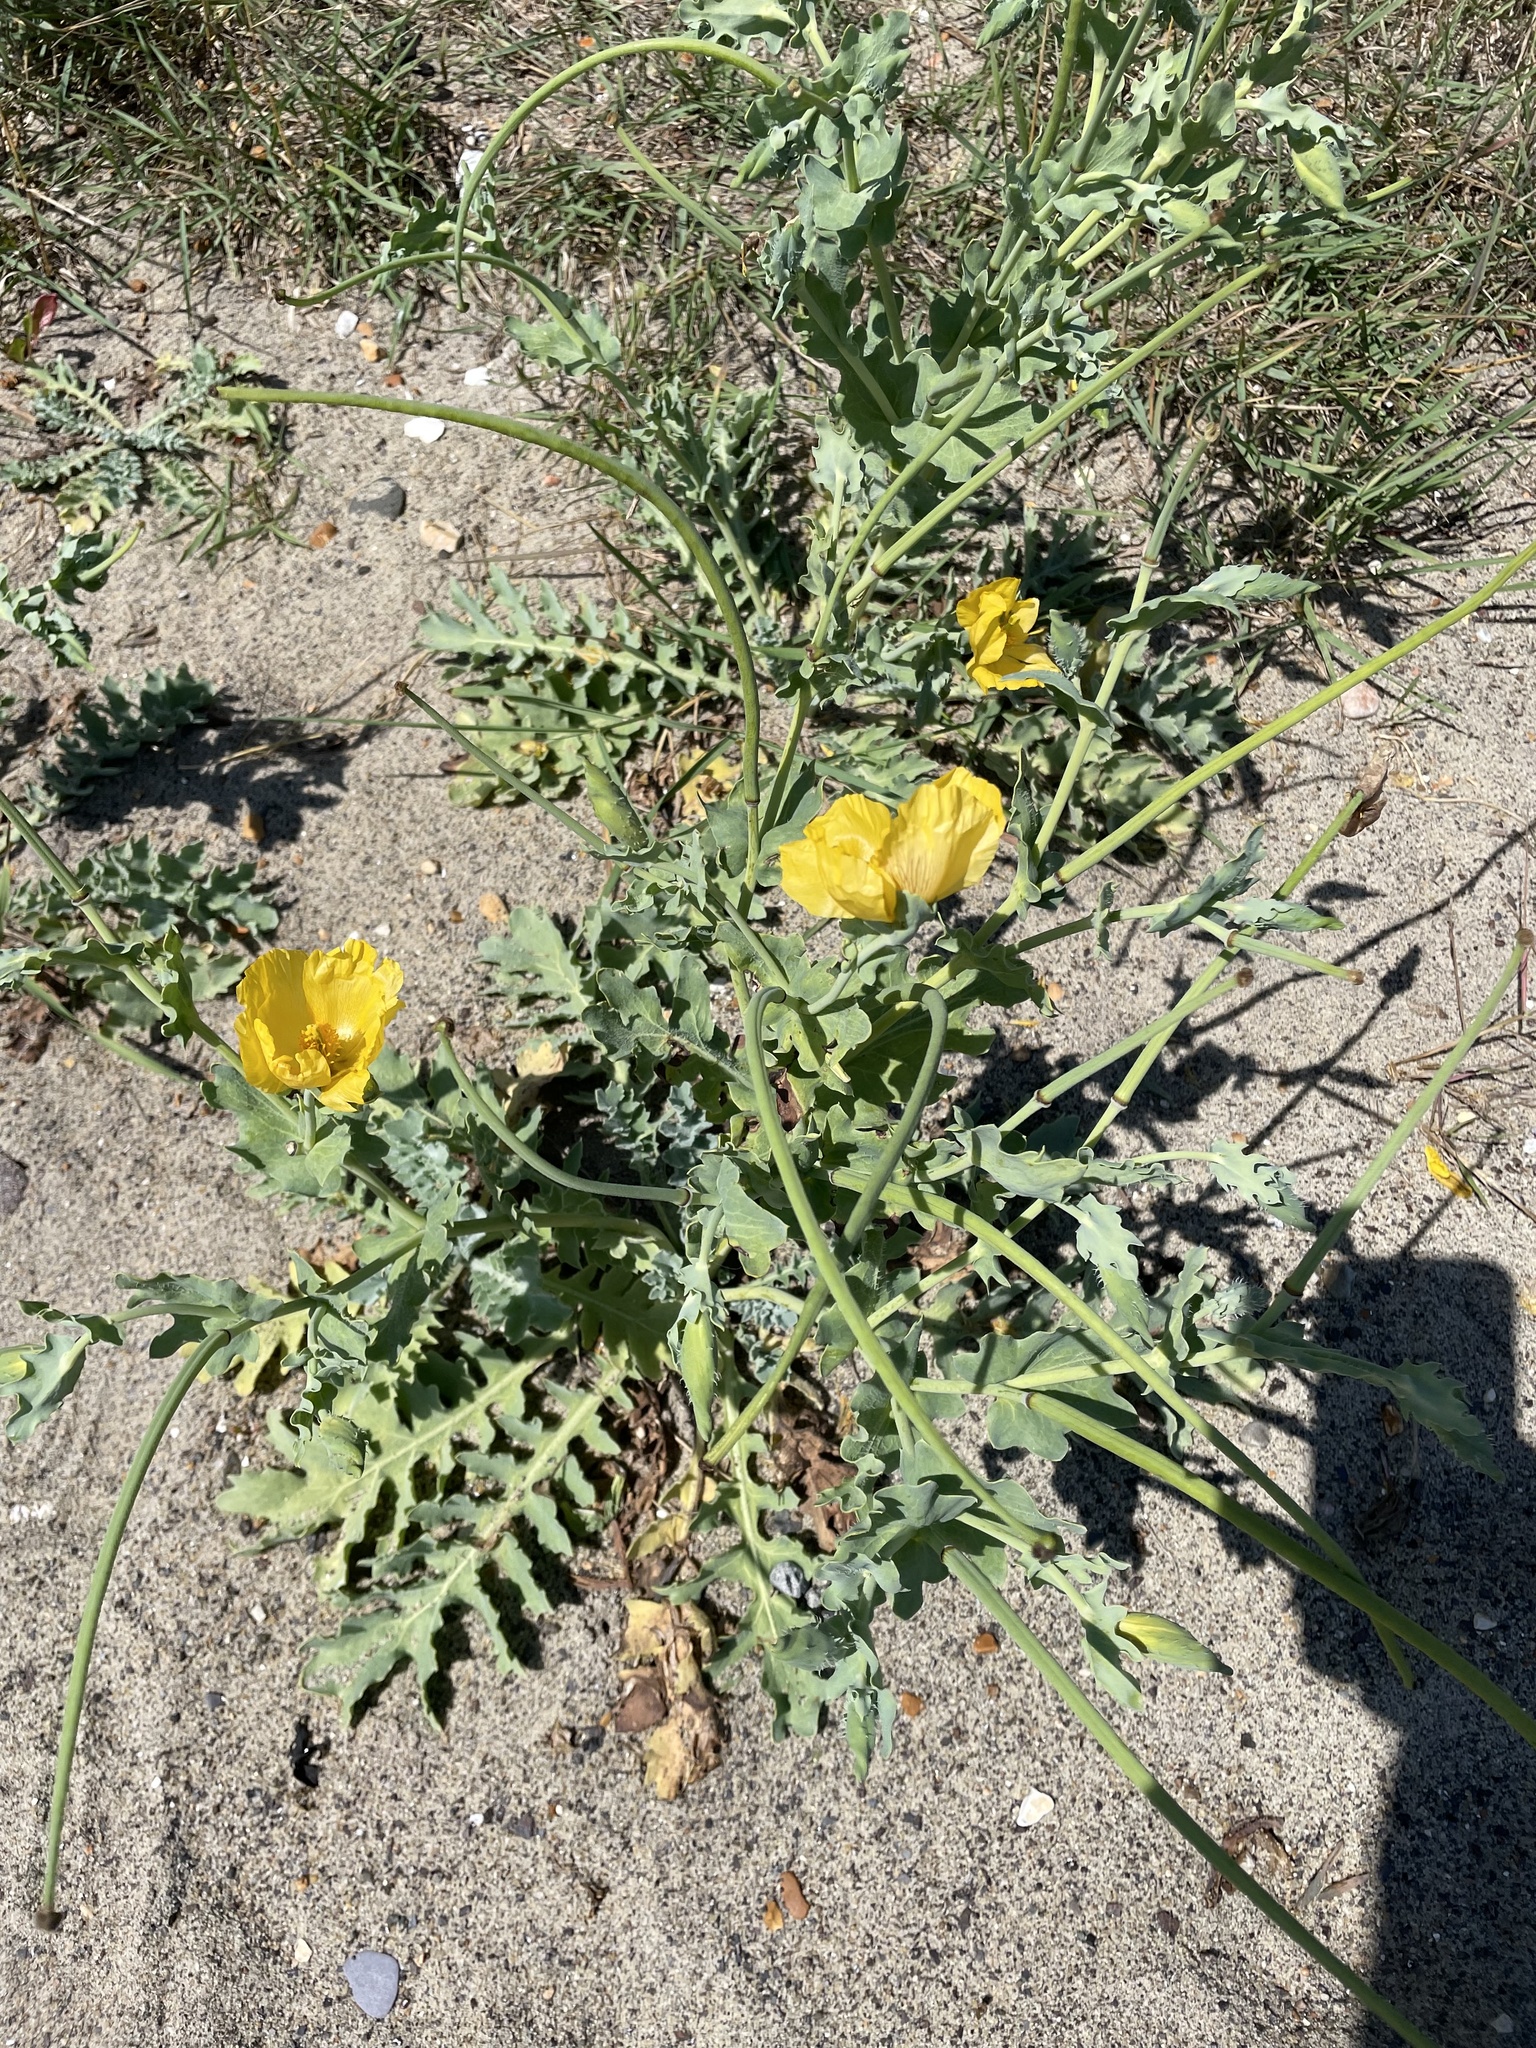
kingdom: Plantae
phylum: Tracheophyta
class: Magnoliopsida
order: Ranunculales
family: Papaveraceae
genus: Glaucium
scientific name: Glaucium flavum
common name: Yellow horned-poppy
